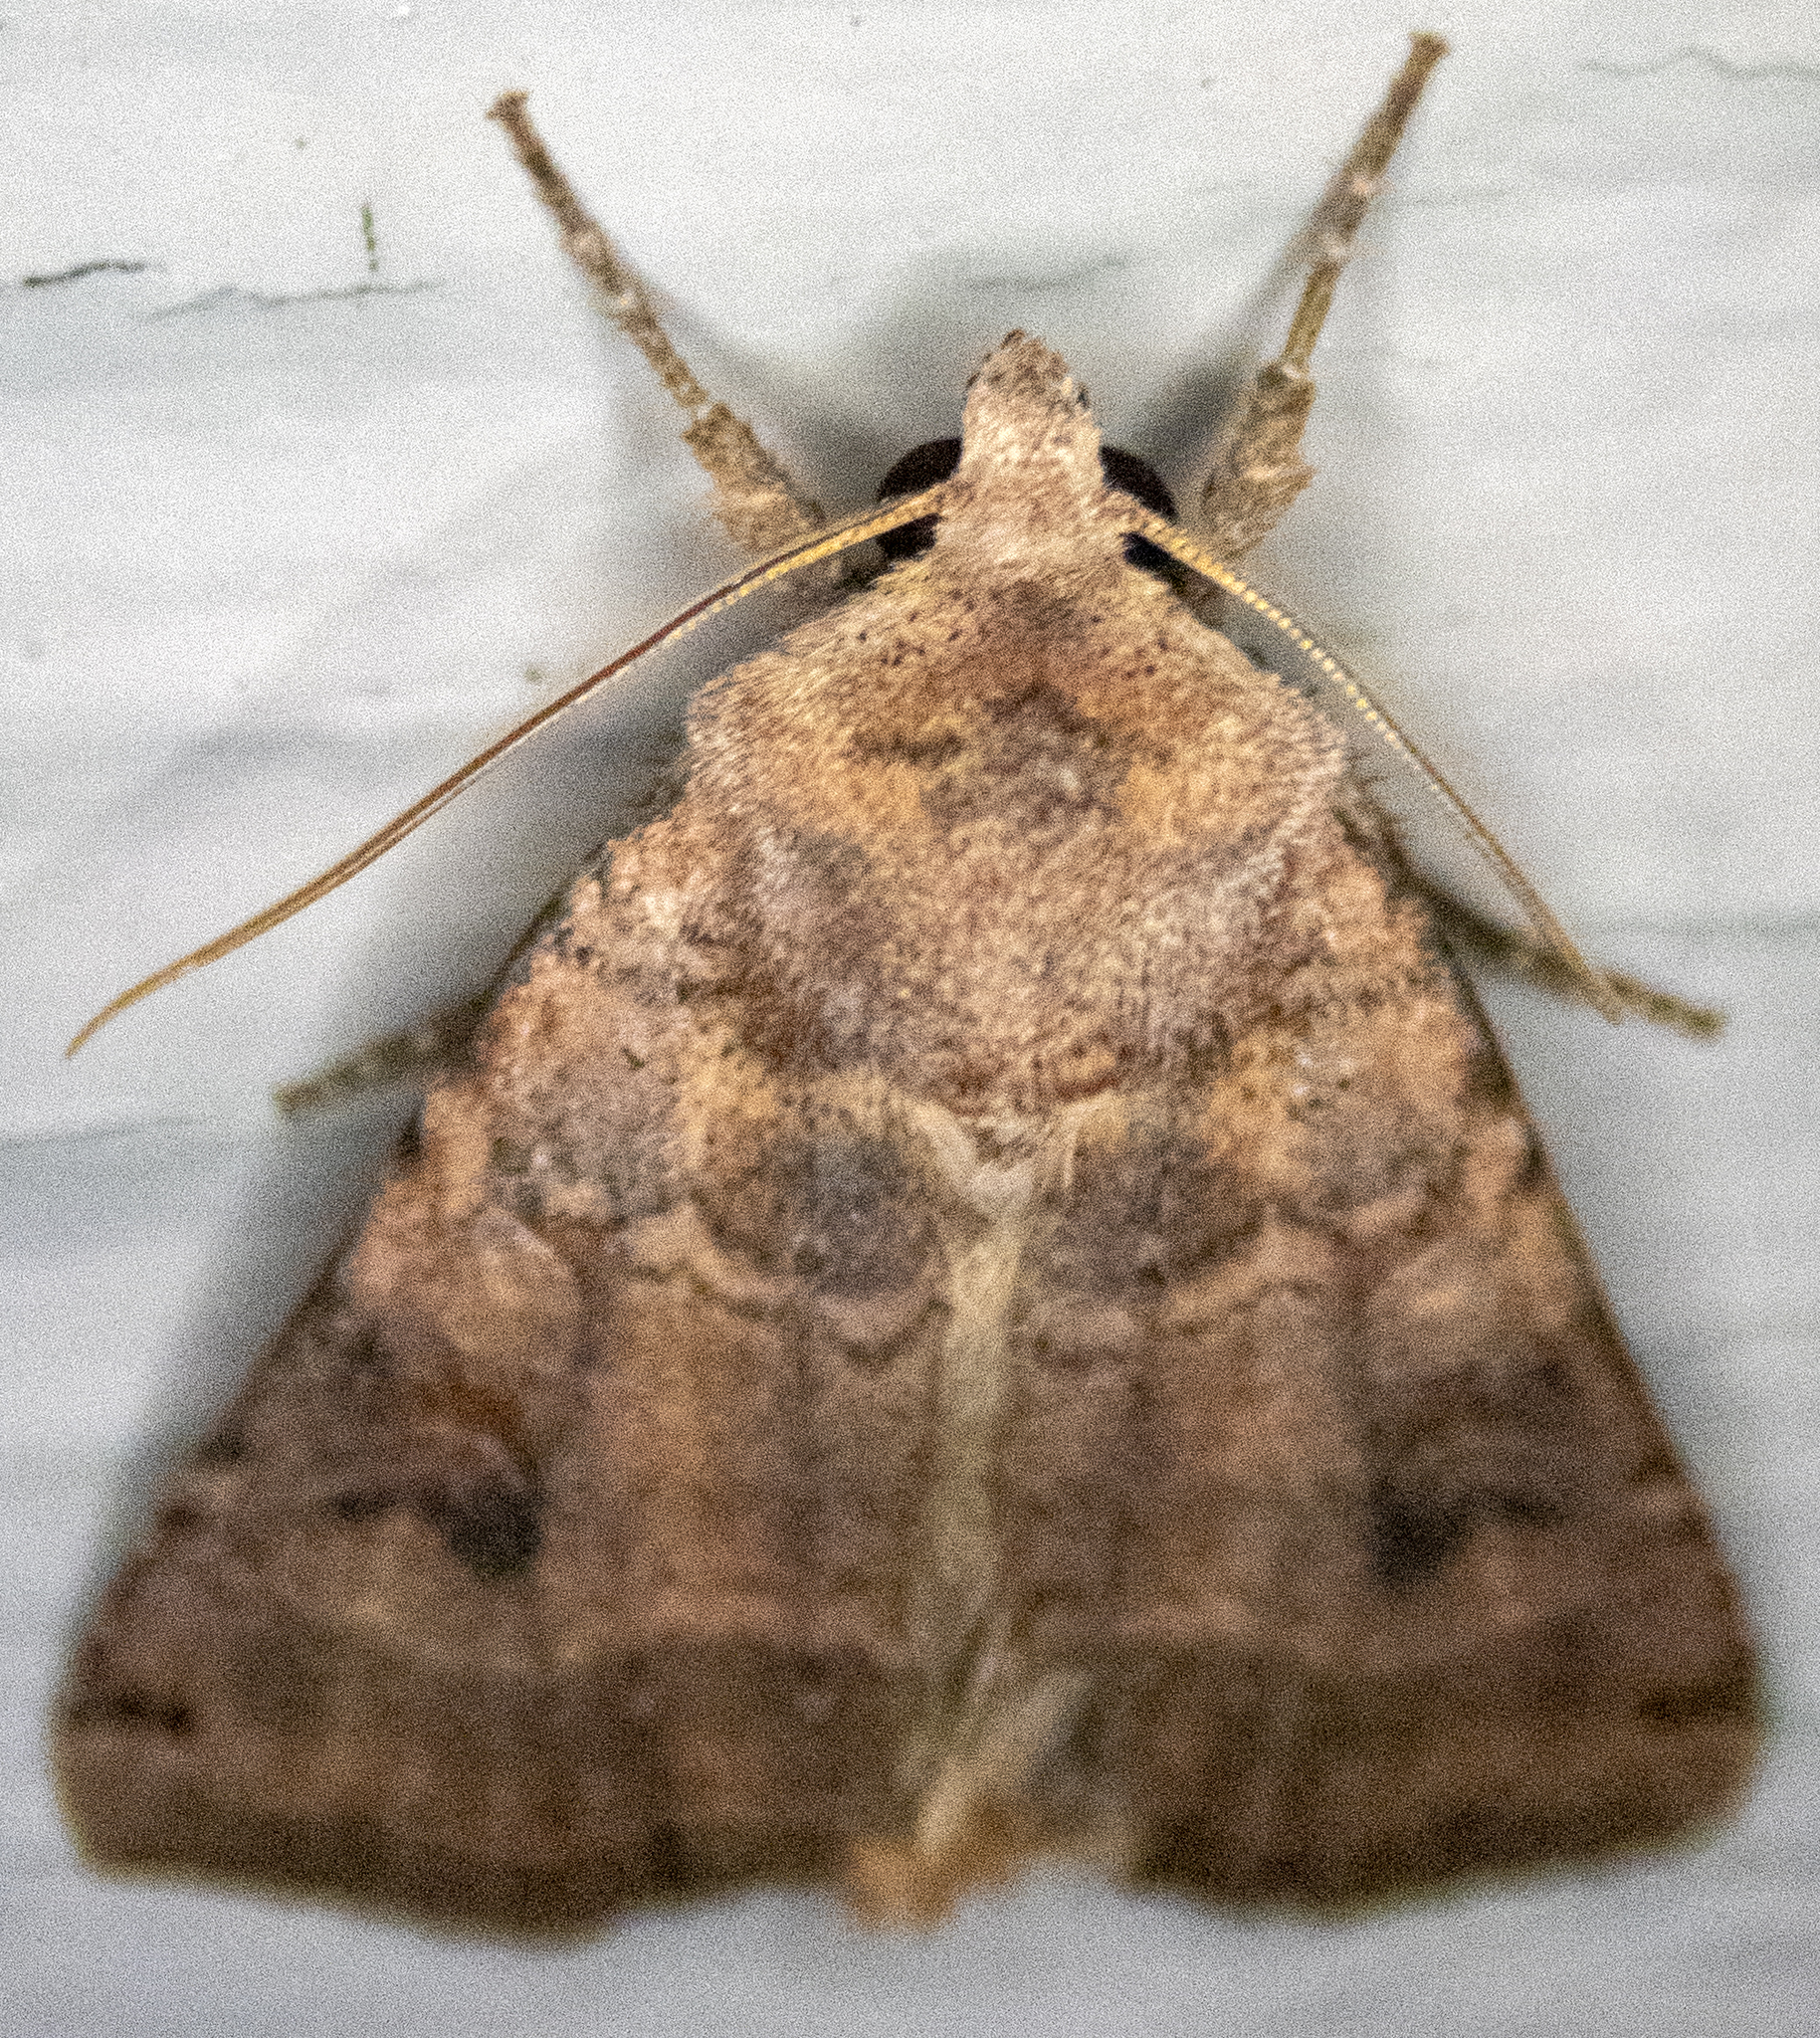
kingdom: Animalia
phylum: Arthropoda
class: Insecta
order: Lepidoptera
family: Noctuidae
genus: Xestia
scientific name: Xestia smithii
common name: Smith's dart
